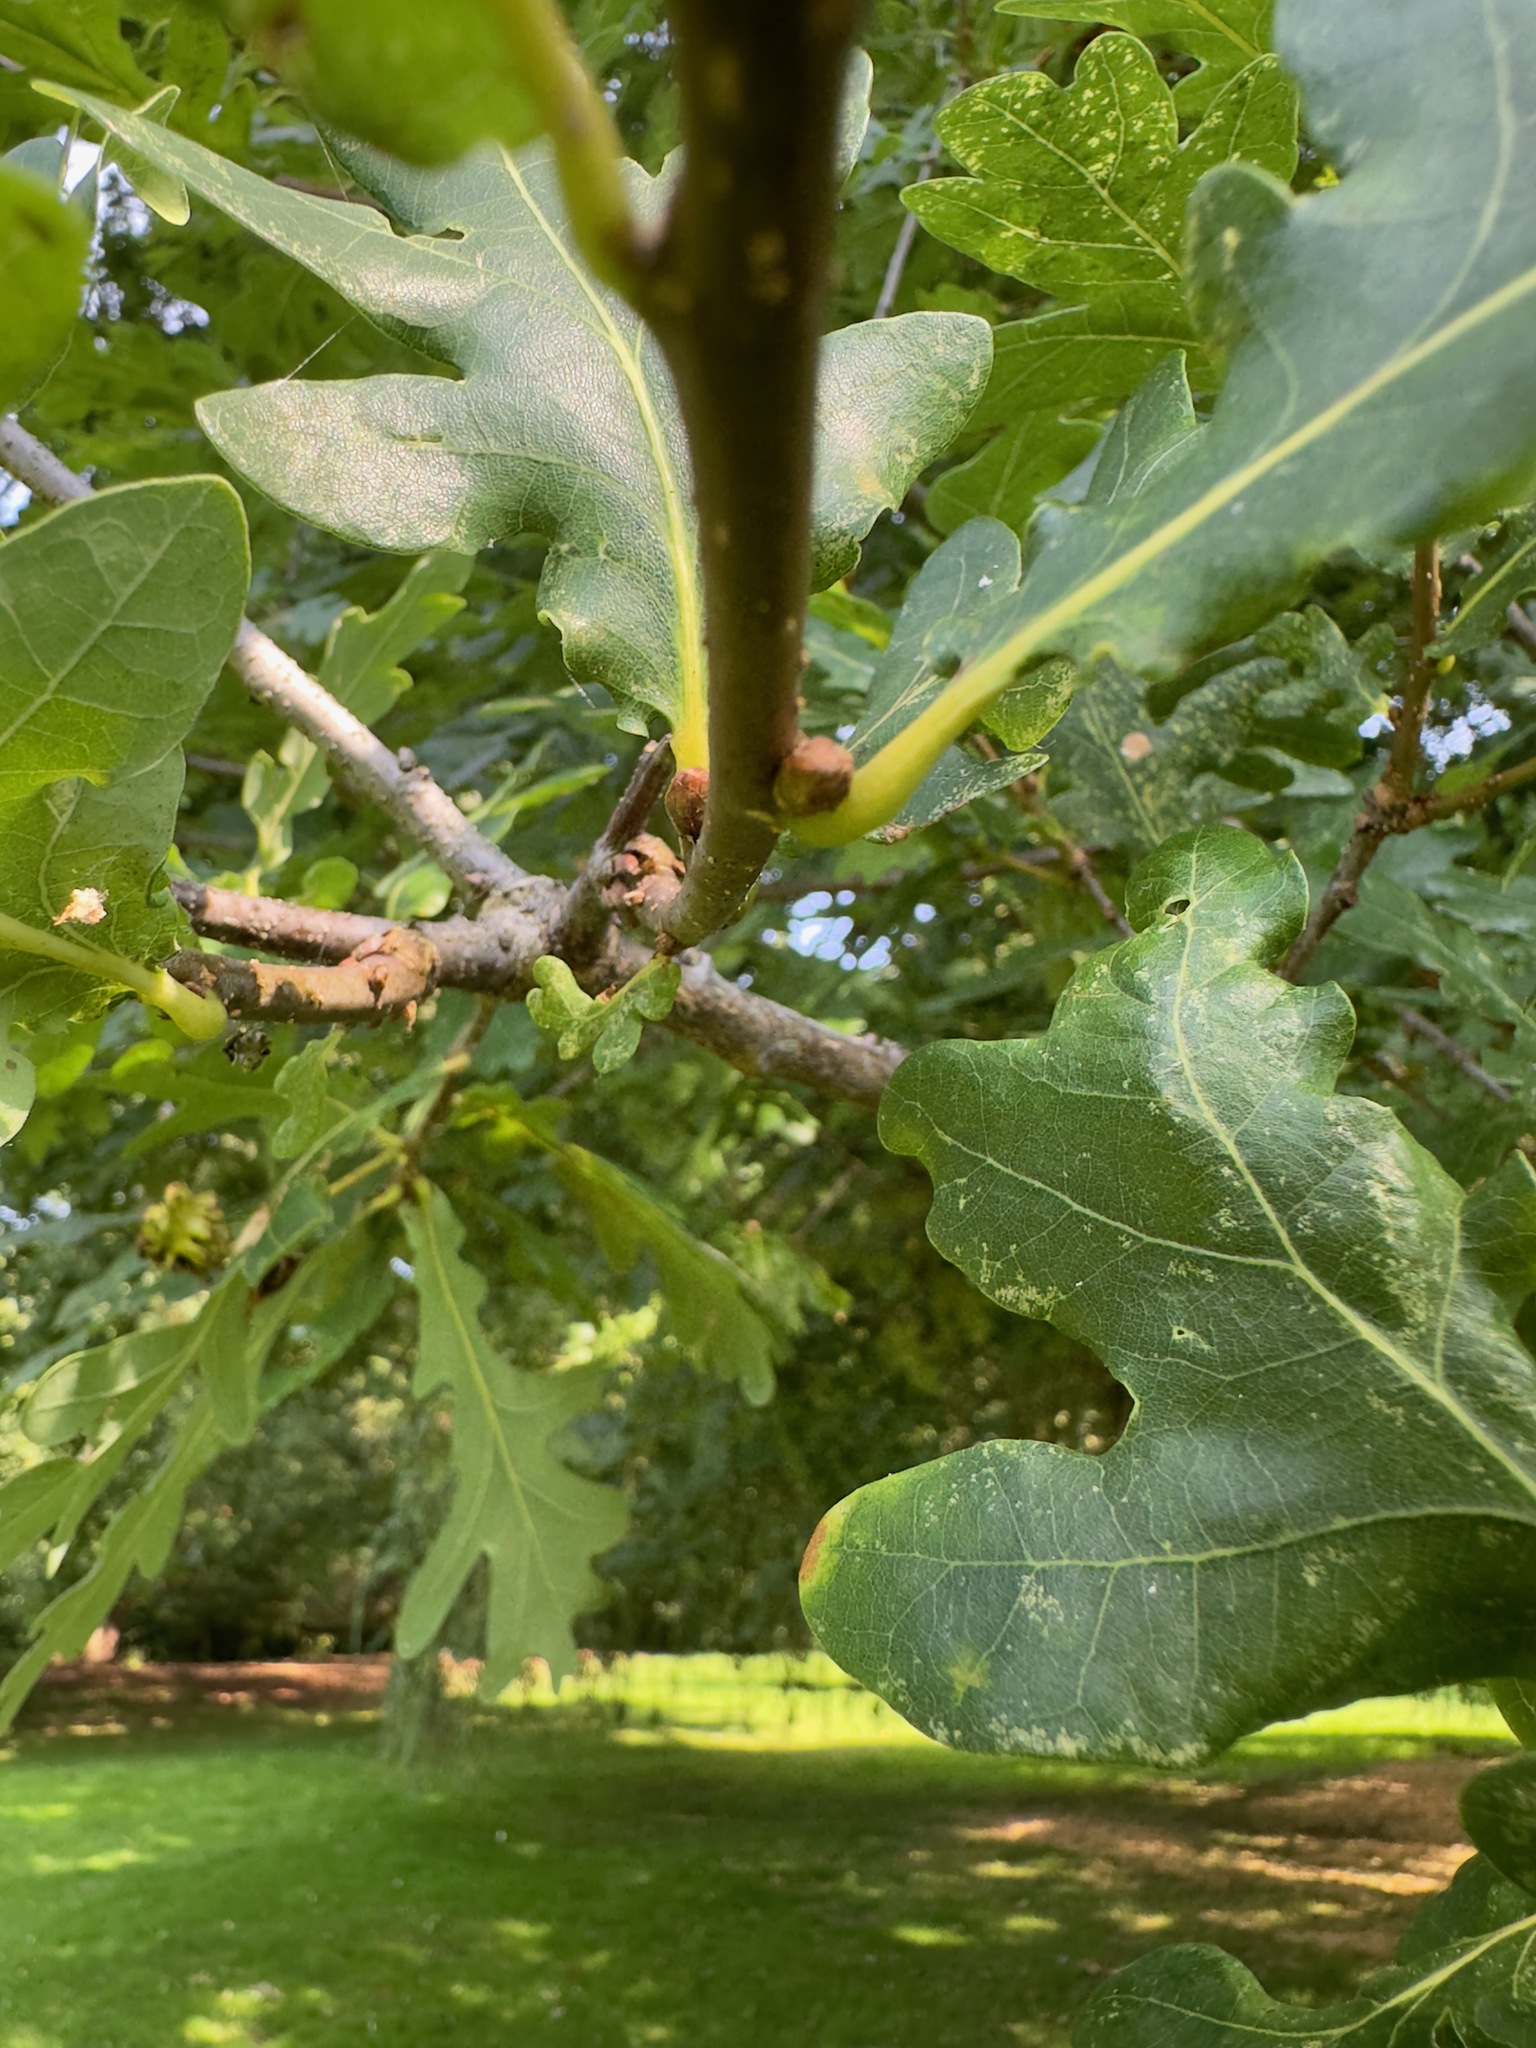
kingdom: Plantae
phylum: Tracheophyta
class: Magnoliopsida
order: Fagales
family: Fagaceae
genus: Quercus
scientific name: Quercus robur
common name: Pedunculate oak
